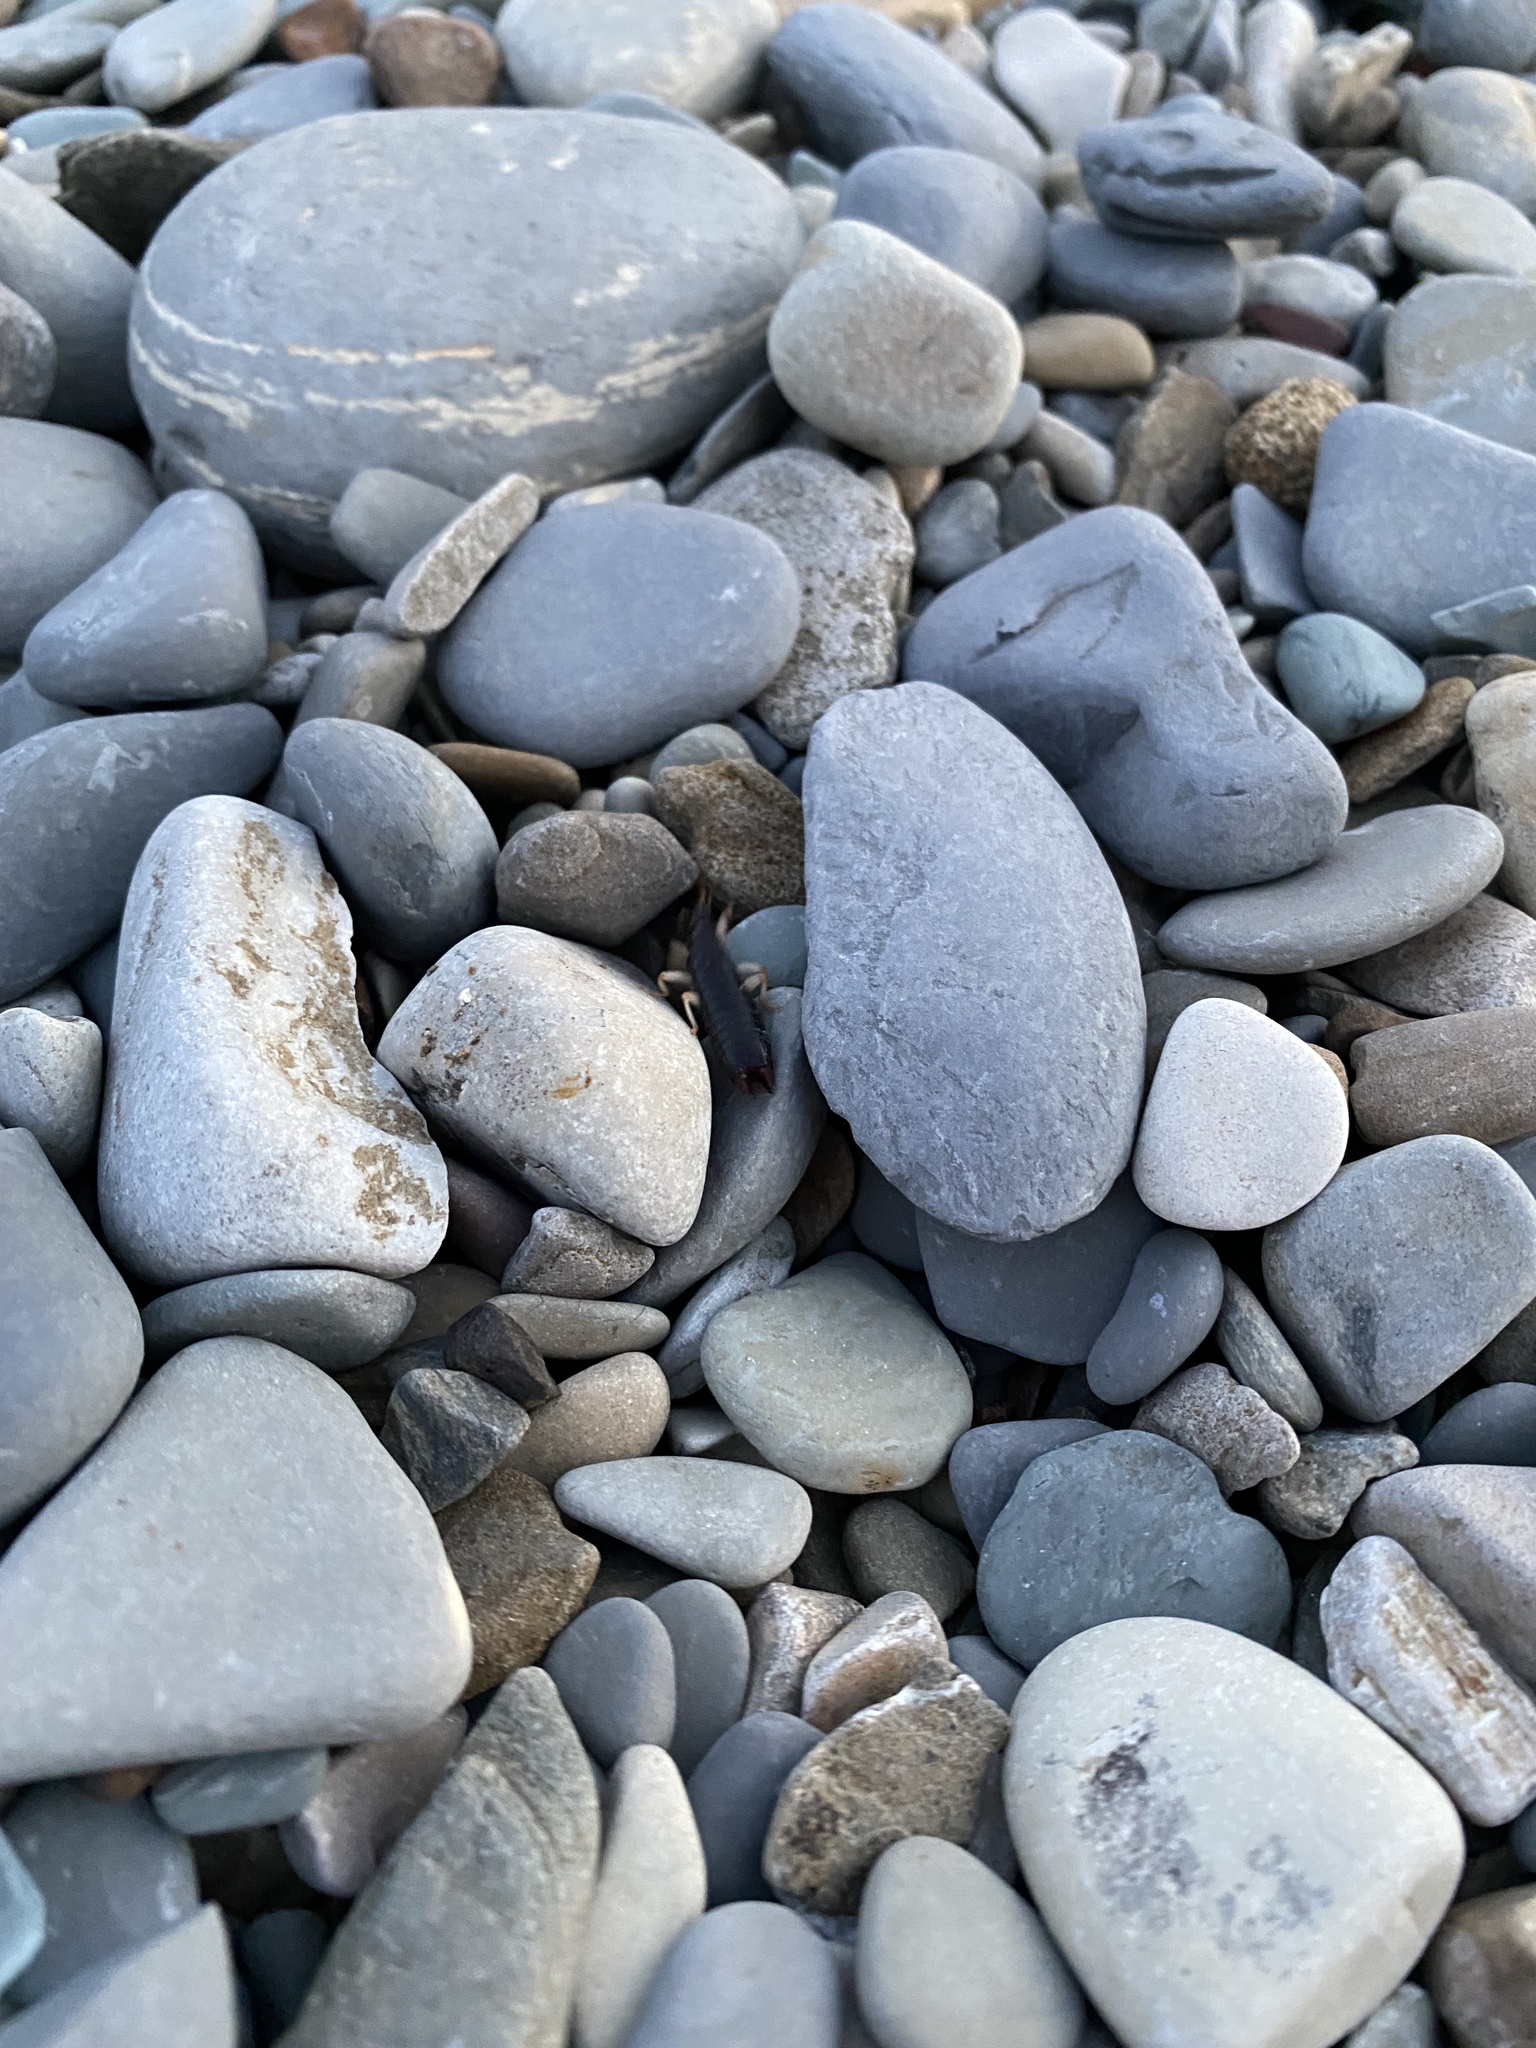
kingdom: Animalia
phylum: Arthropoda
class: Insecta
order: Dermaptera
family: Anisolabididae
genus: Anisolabis
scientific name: Anisolabis maritima
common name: Maritime earwig
